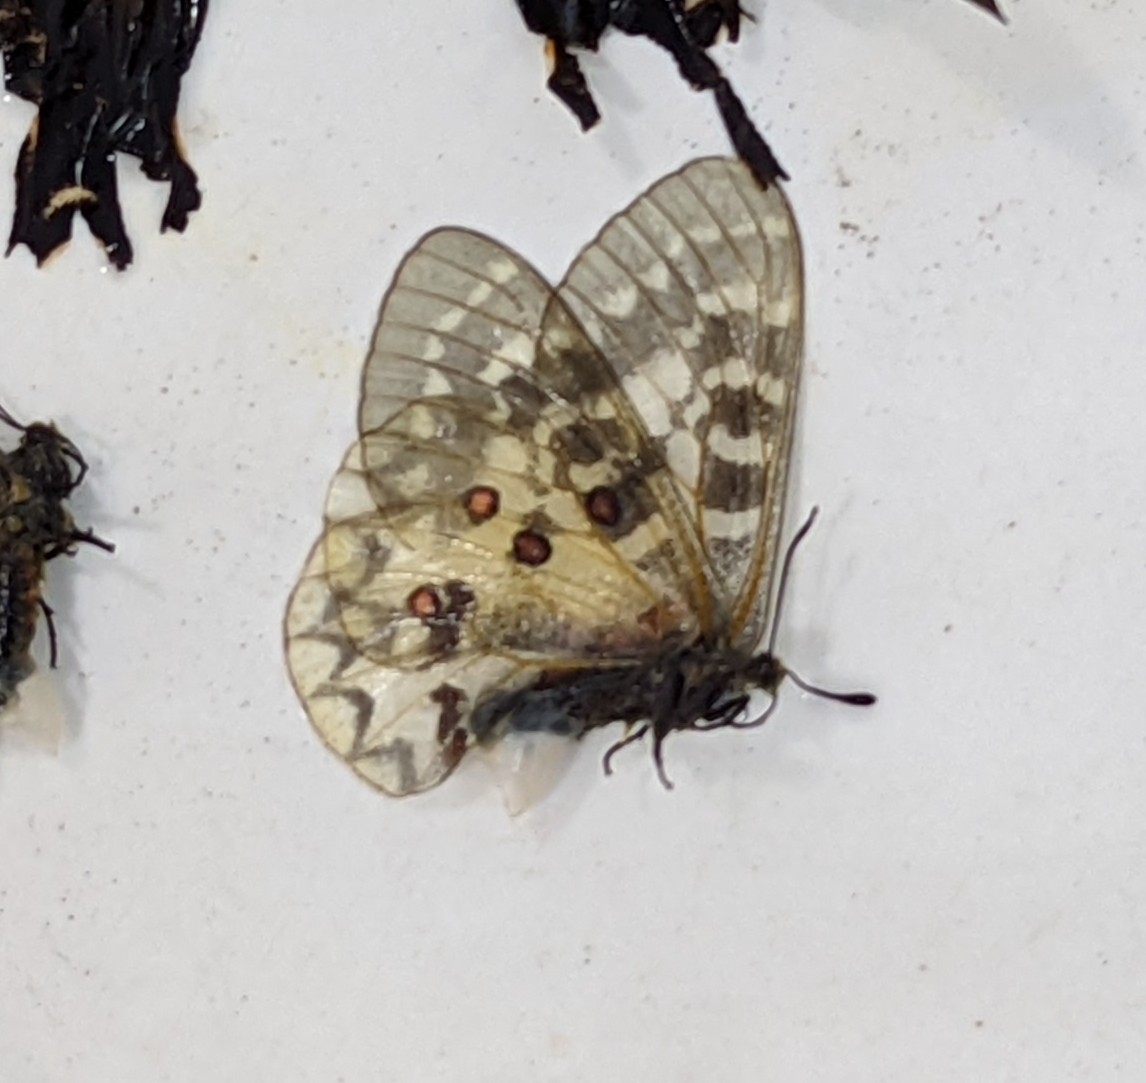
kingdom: Animalia
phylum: Arthropoda
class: Insecta
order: Lepidoptera
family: Papilionidae
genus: Parnassius
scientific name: Parnassius clodius
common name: American apollo
